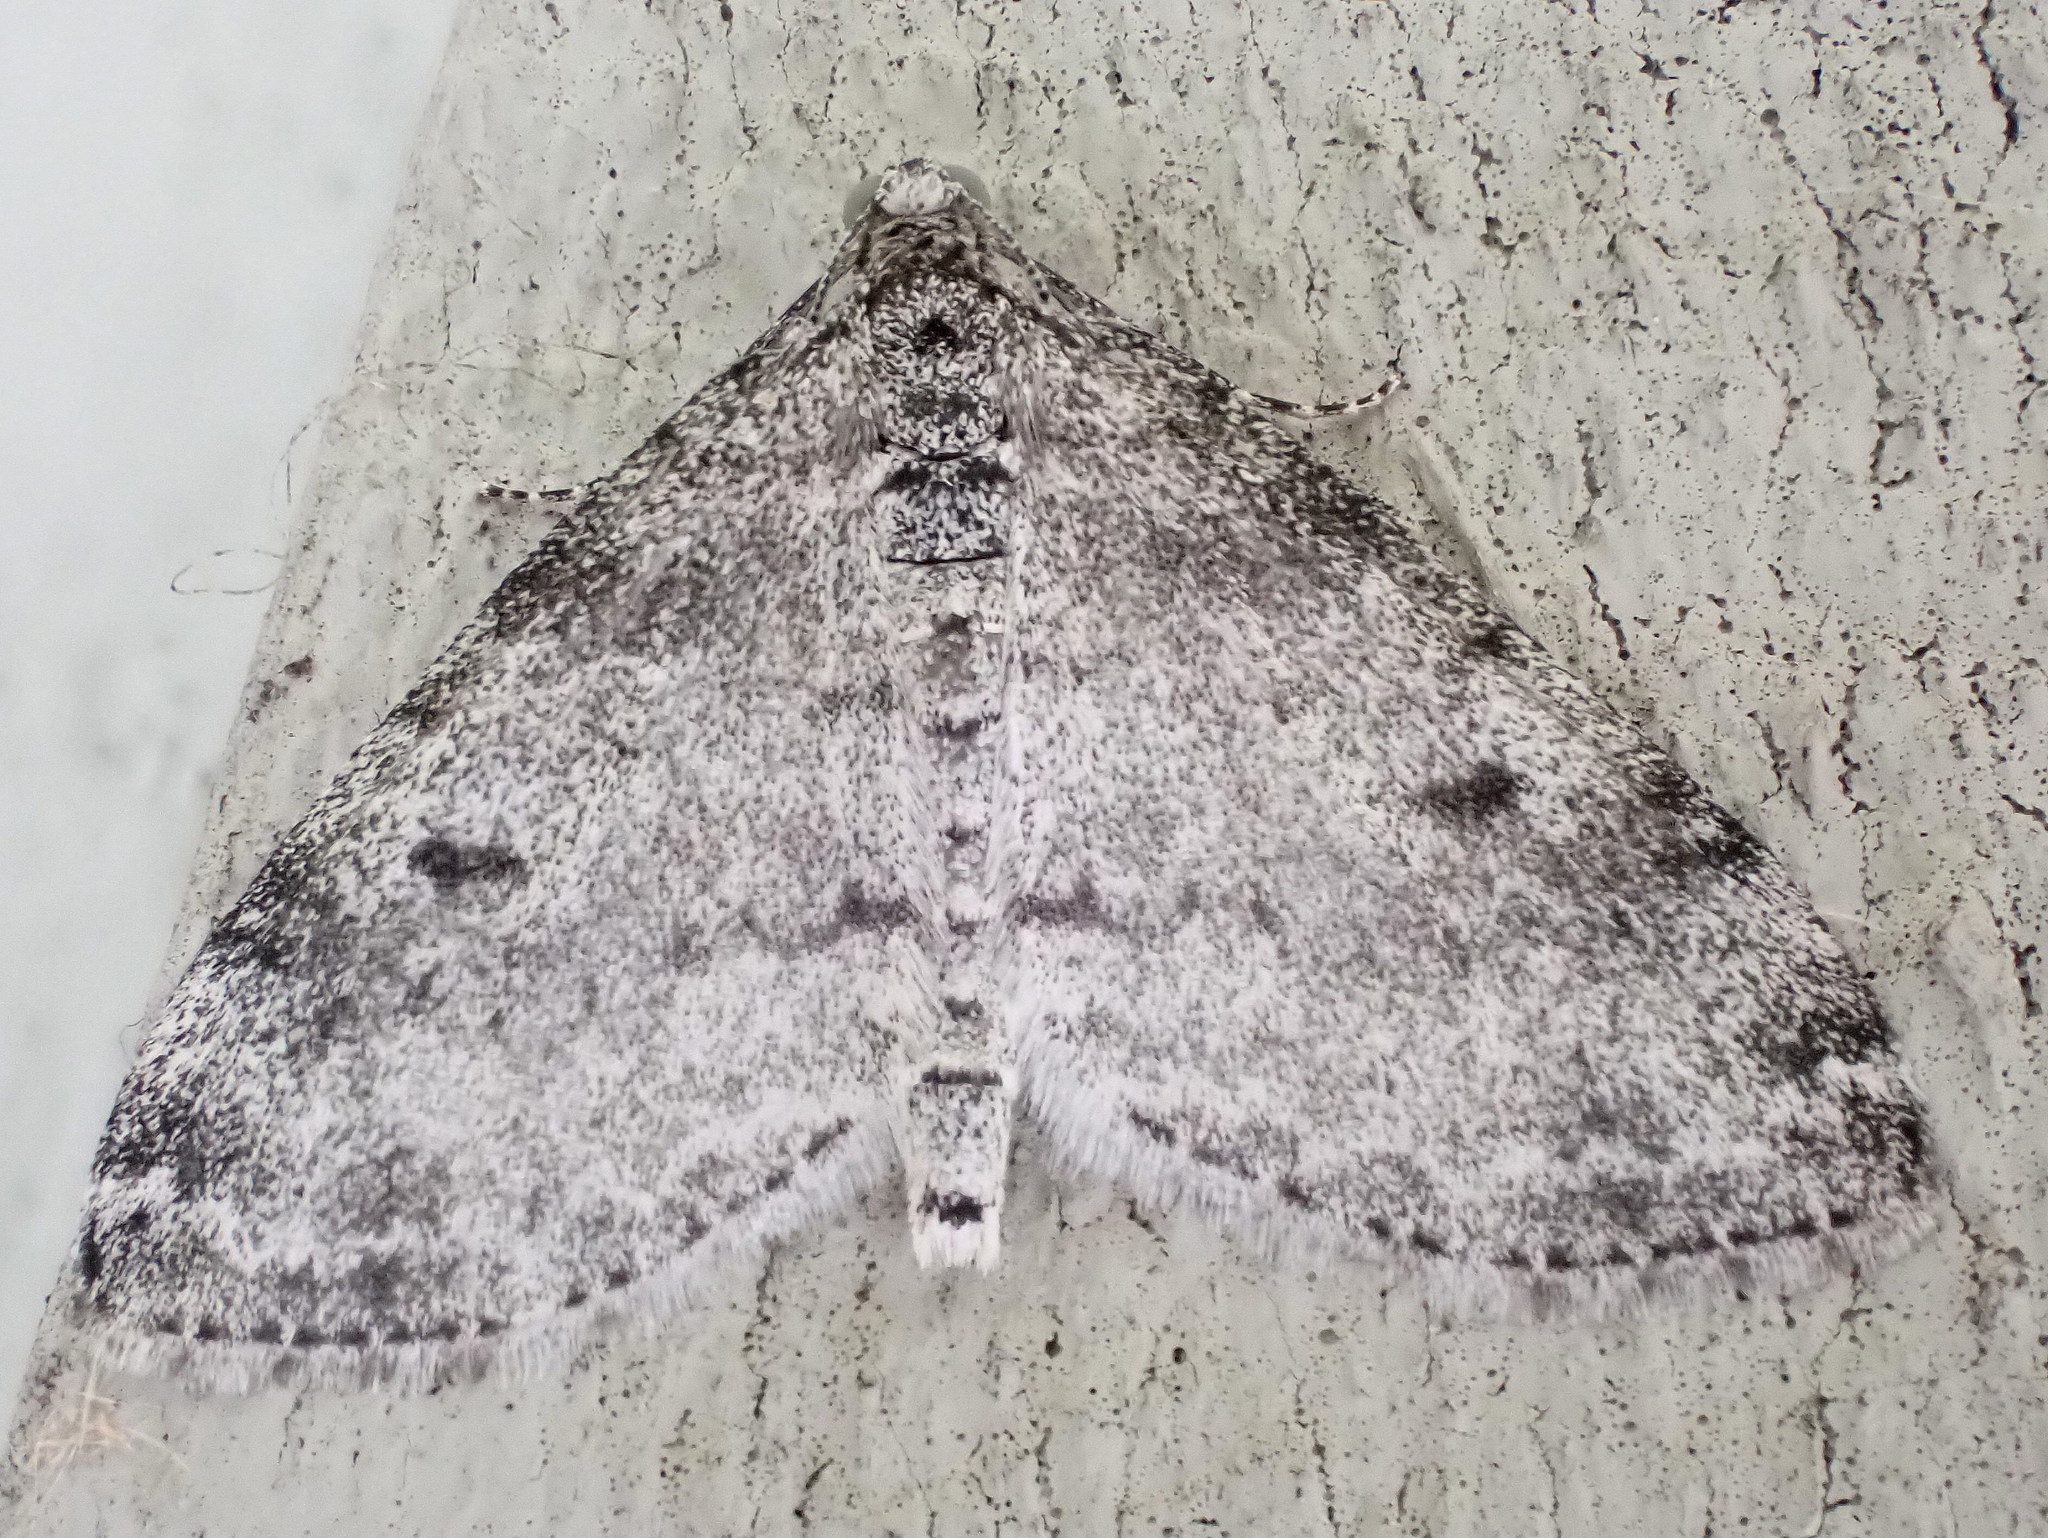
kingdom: Animalia
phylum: Arthropoda
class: Insecta
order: Lepidoptera
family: Geometridae
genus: Lobophora
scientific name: Lobophora nivigerata
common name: Powdered bigwing
